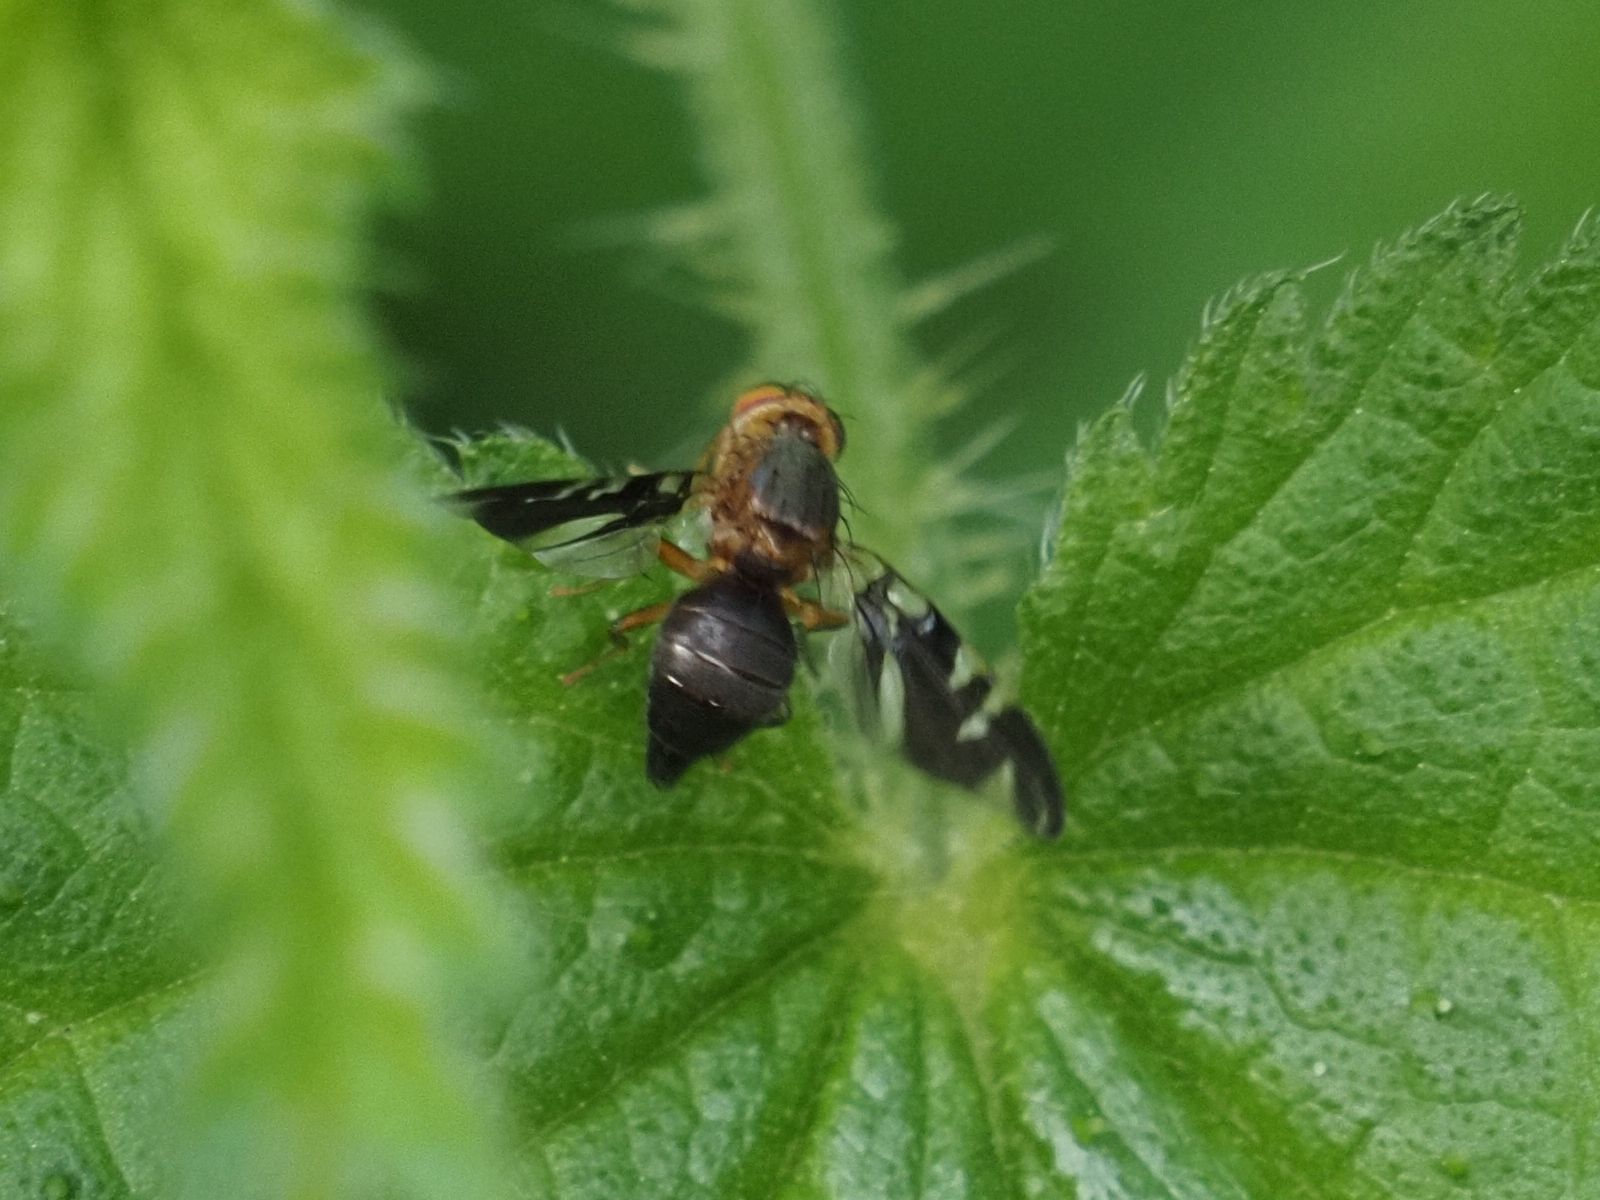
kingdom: Animalia
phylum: Arthropoda
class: Insecta
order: Diptera
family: Tephritidae
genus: Philophylla
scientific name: Philophylla caesio
